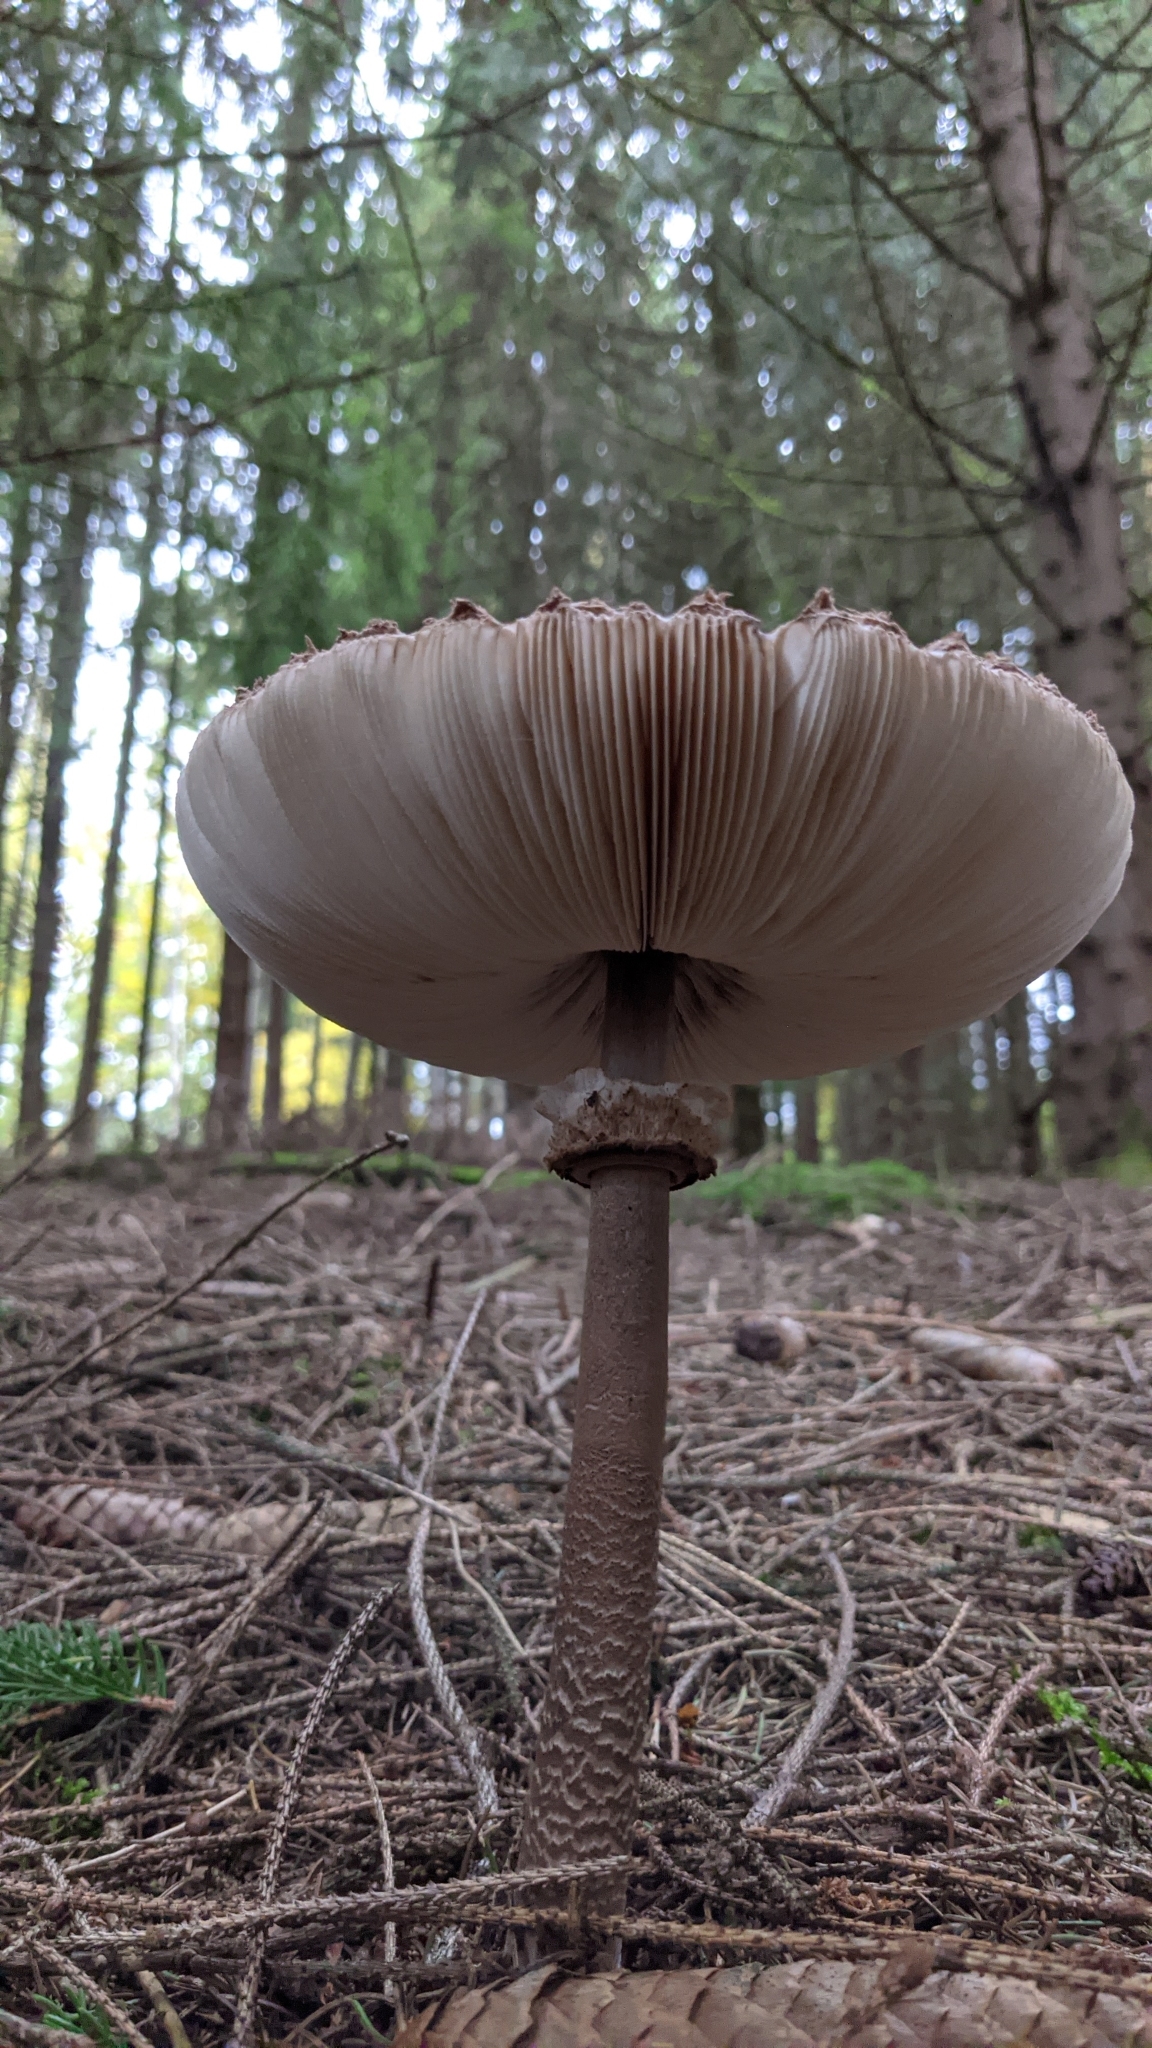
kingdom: Fungi
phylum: Basidiomycota
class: Agaricomycetes
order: Agaricales
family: Agaricaceae
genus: Macrolepiota
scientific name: Macrolepiota procera
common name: Parasol
